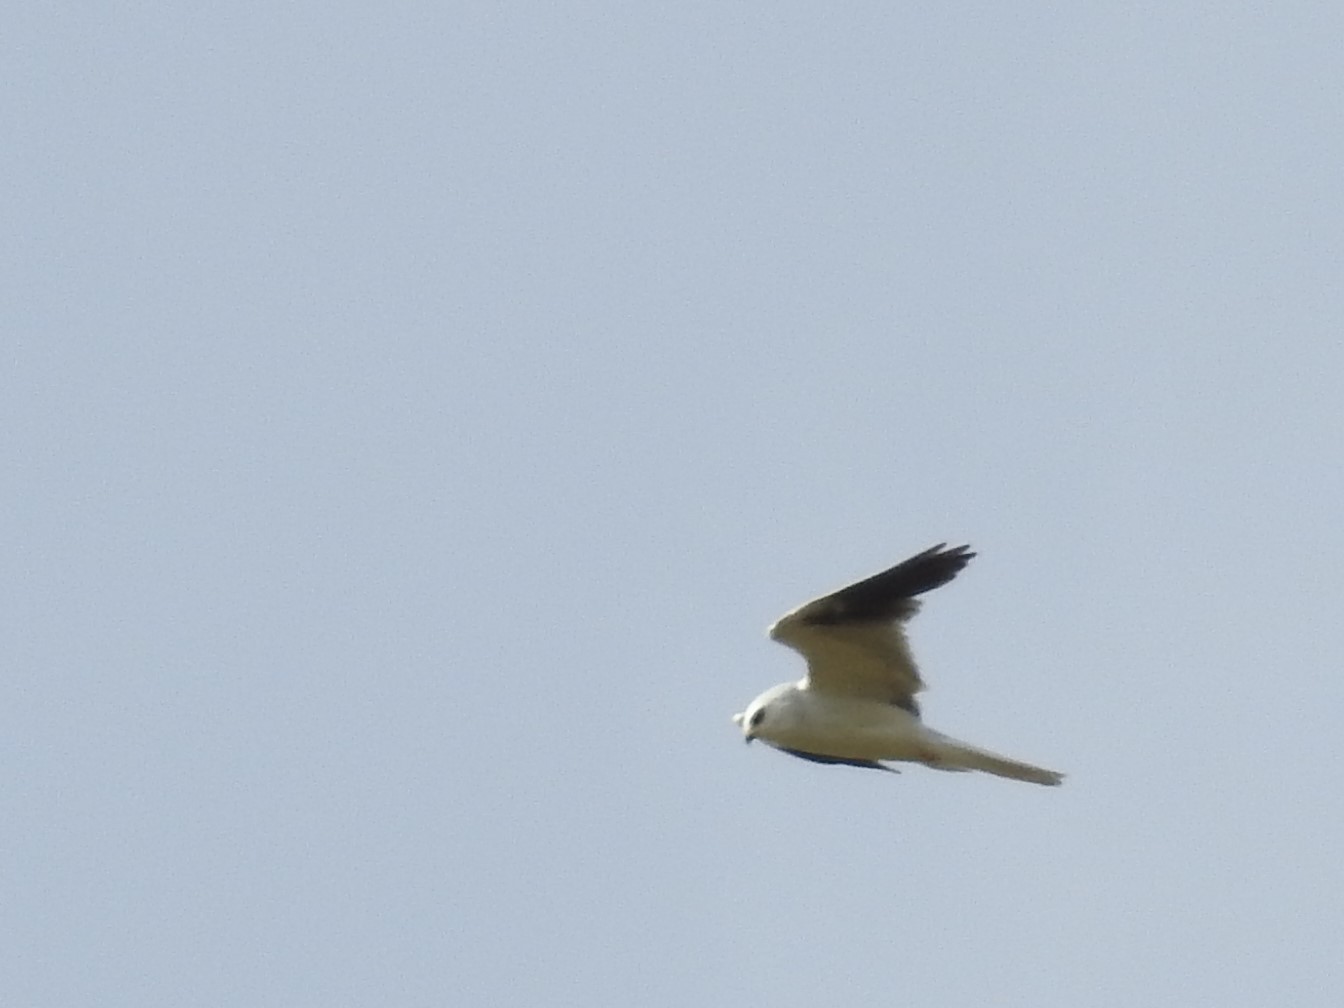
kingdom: Animalia
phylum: Chordata
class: Aves
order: Accipitriformes
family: Accipitridae
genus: Elanus
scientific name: Elanus leucurus
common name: White-tailed kite
